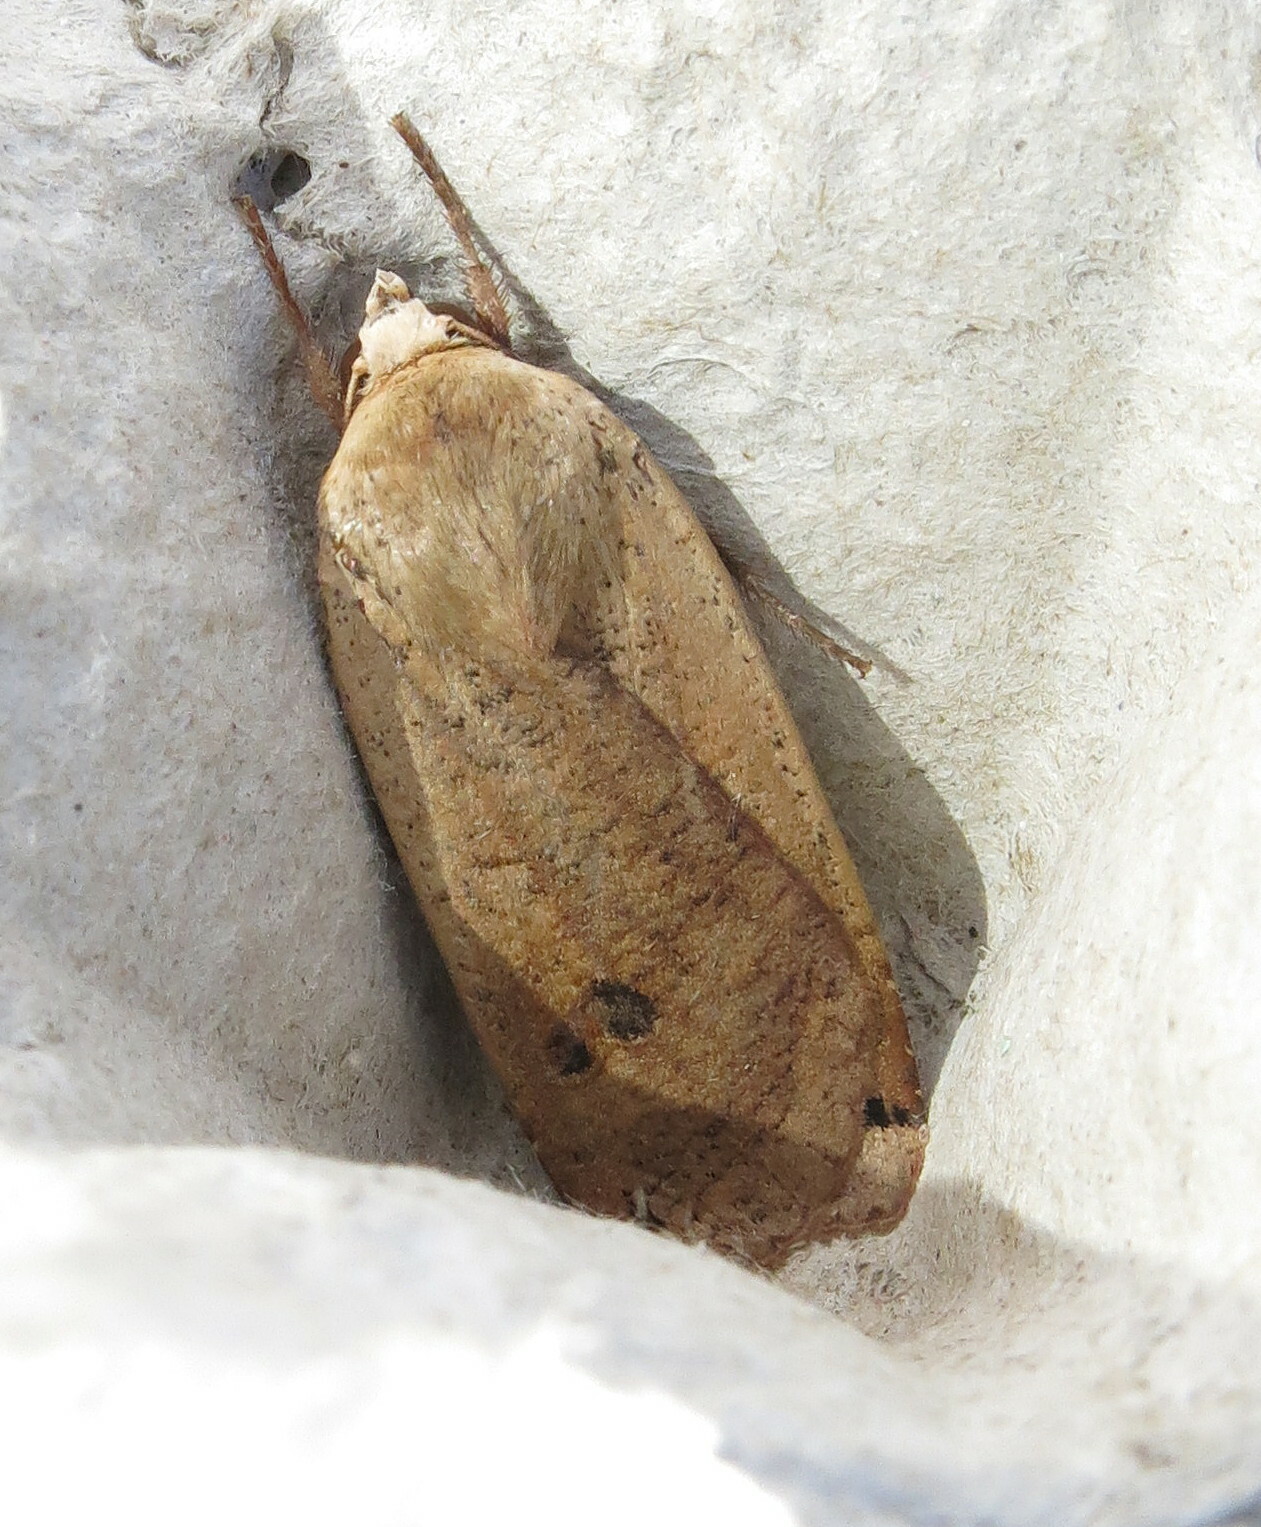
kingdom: Animalia
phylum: Arthropoda
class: Insecta
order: Lepidoptera
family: Noctuidae
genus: Noctua
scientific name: Noctua pronuba
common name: Large yellow underwing
